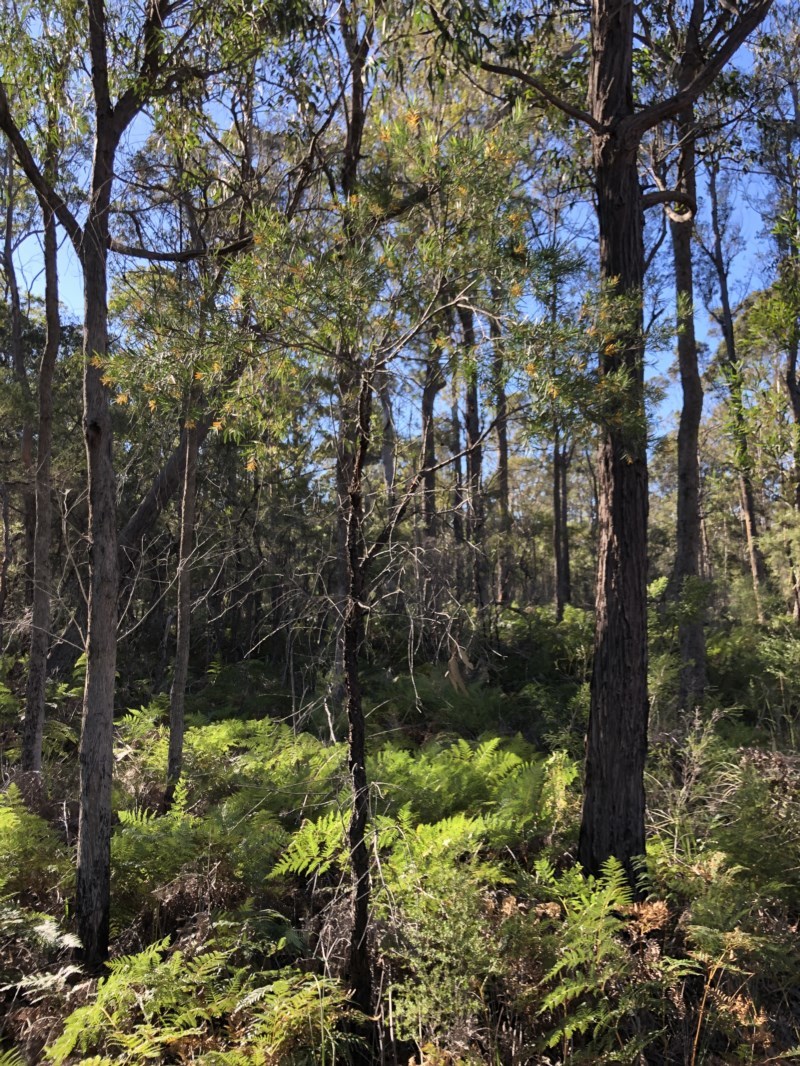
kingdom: Plantae
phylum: Tracheophyta
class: Magnoliopsida
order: Proteales
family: Proteaceae
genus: Persoonia
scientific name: Persoonia linearis
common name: Narrow-leaf geebung
